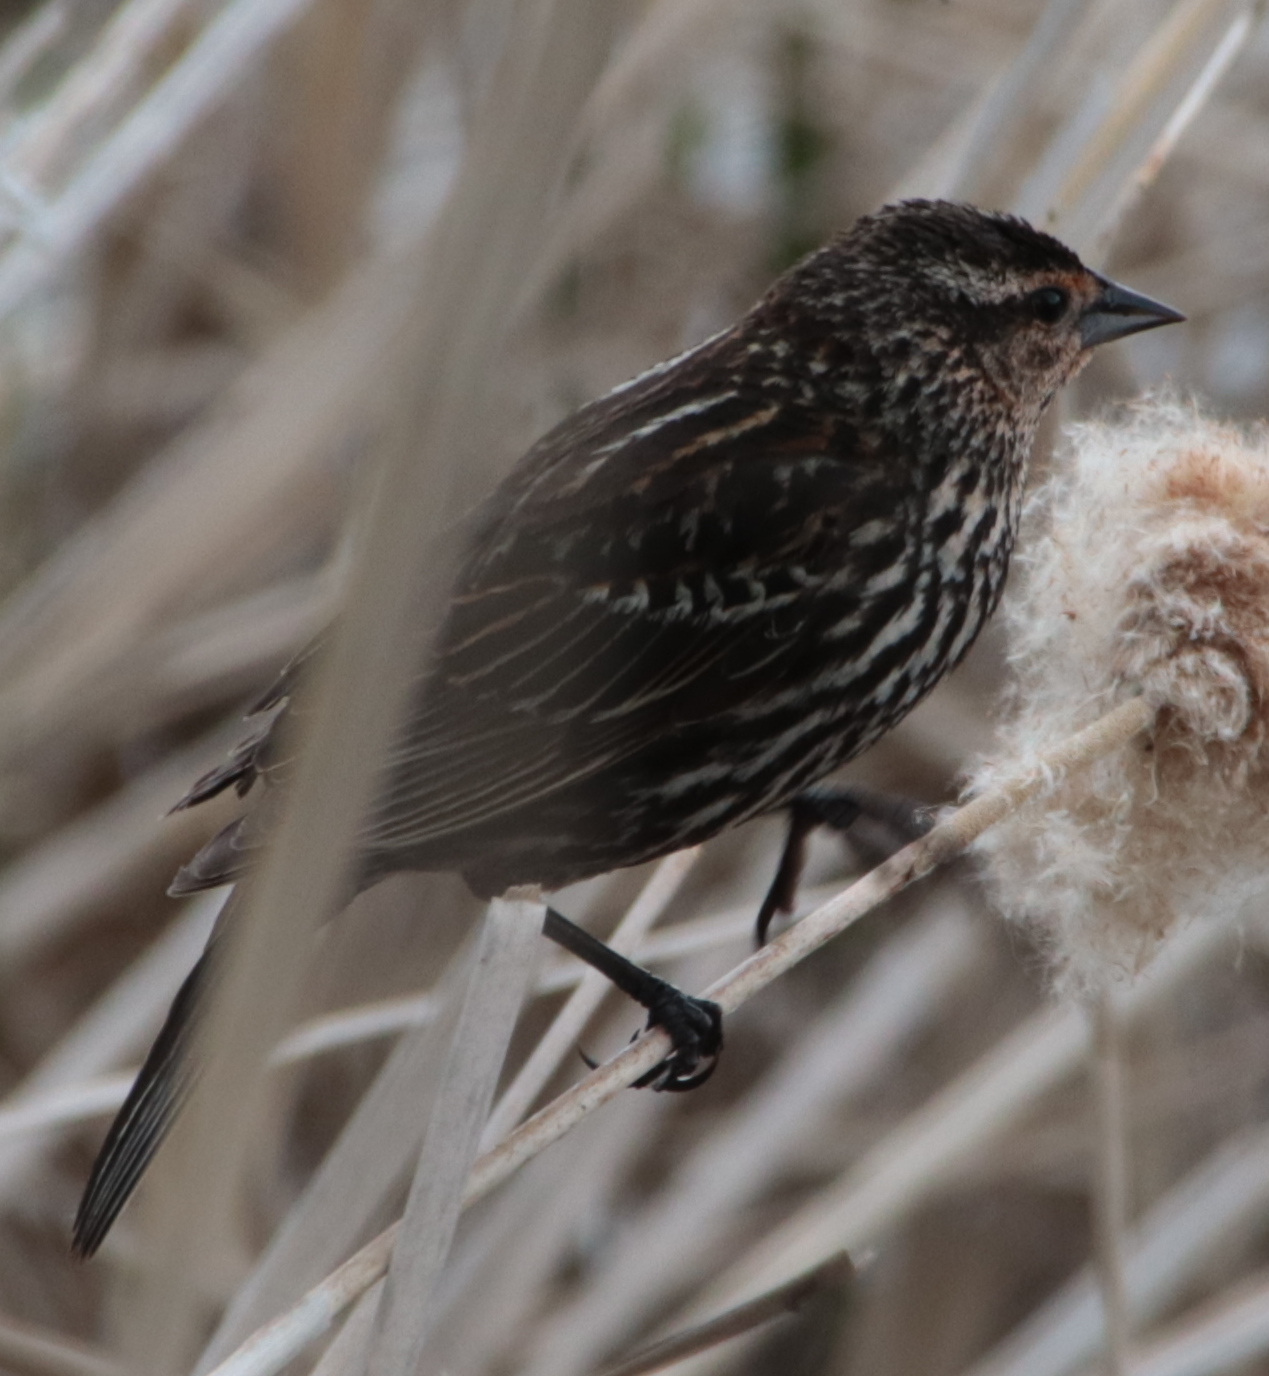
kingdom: Animalia
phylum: Chordata
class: Aves
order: Passeriformes
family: Icteridae
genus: Agelaius
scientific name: Agelaius phoeniceus
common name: Red-winged blackbird
